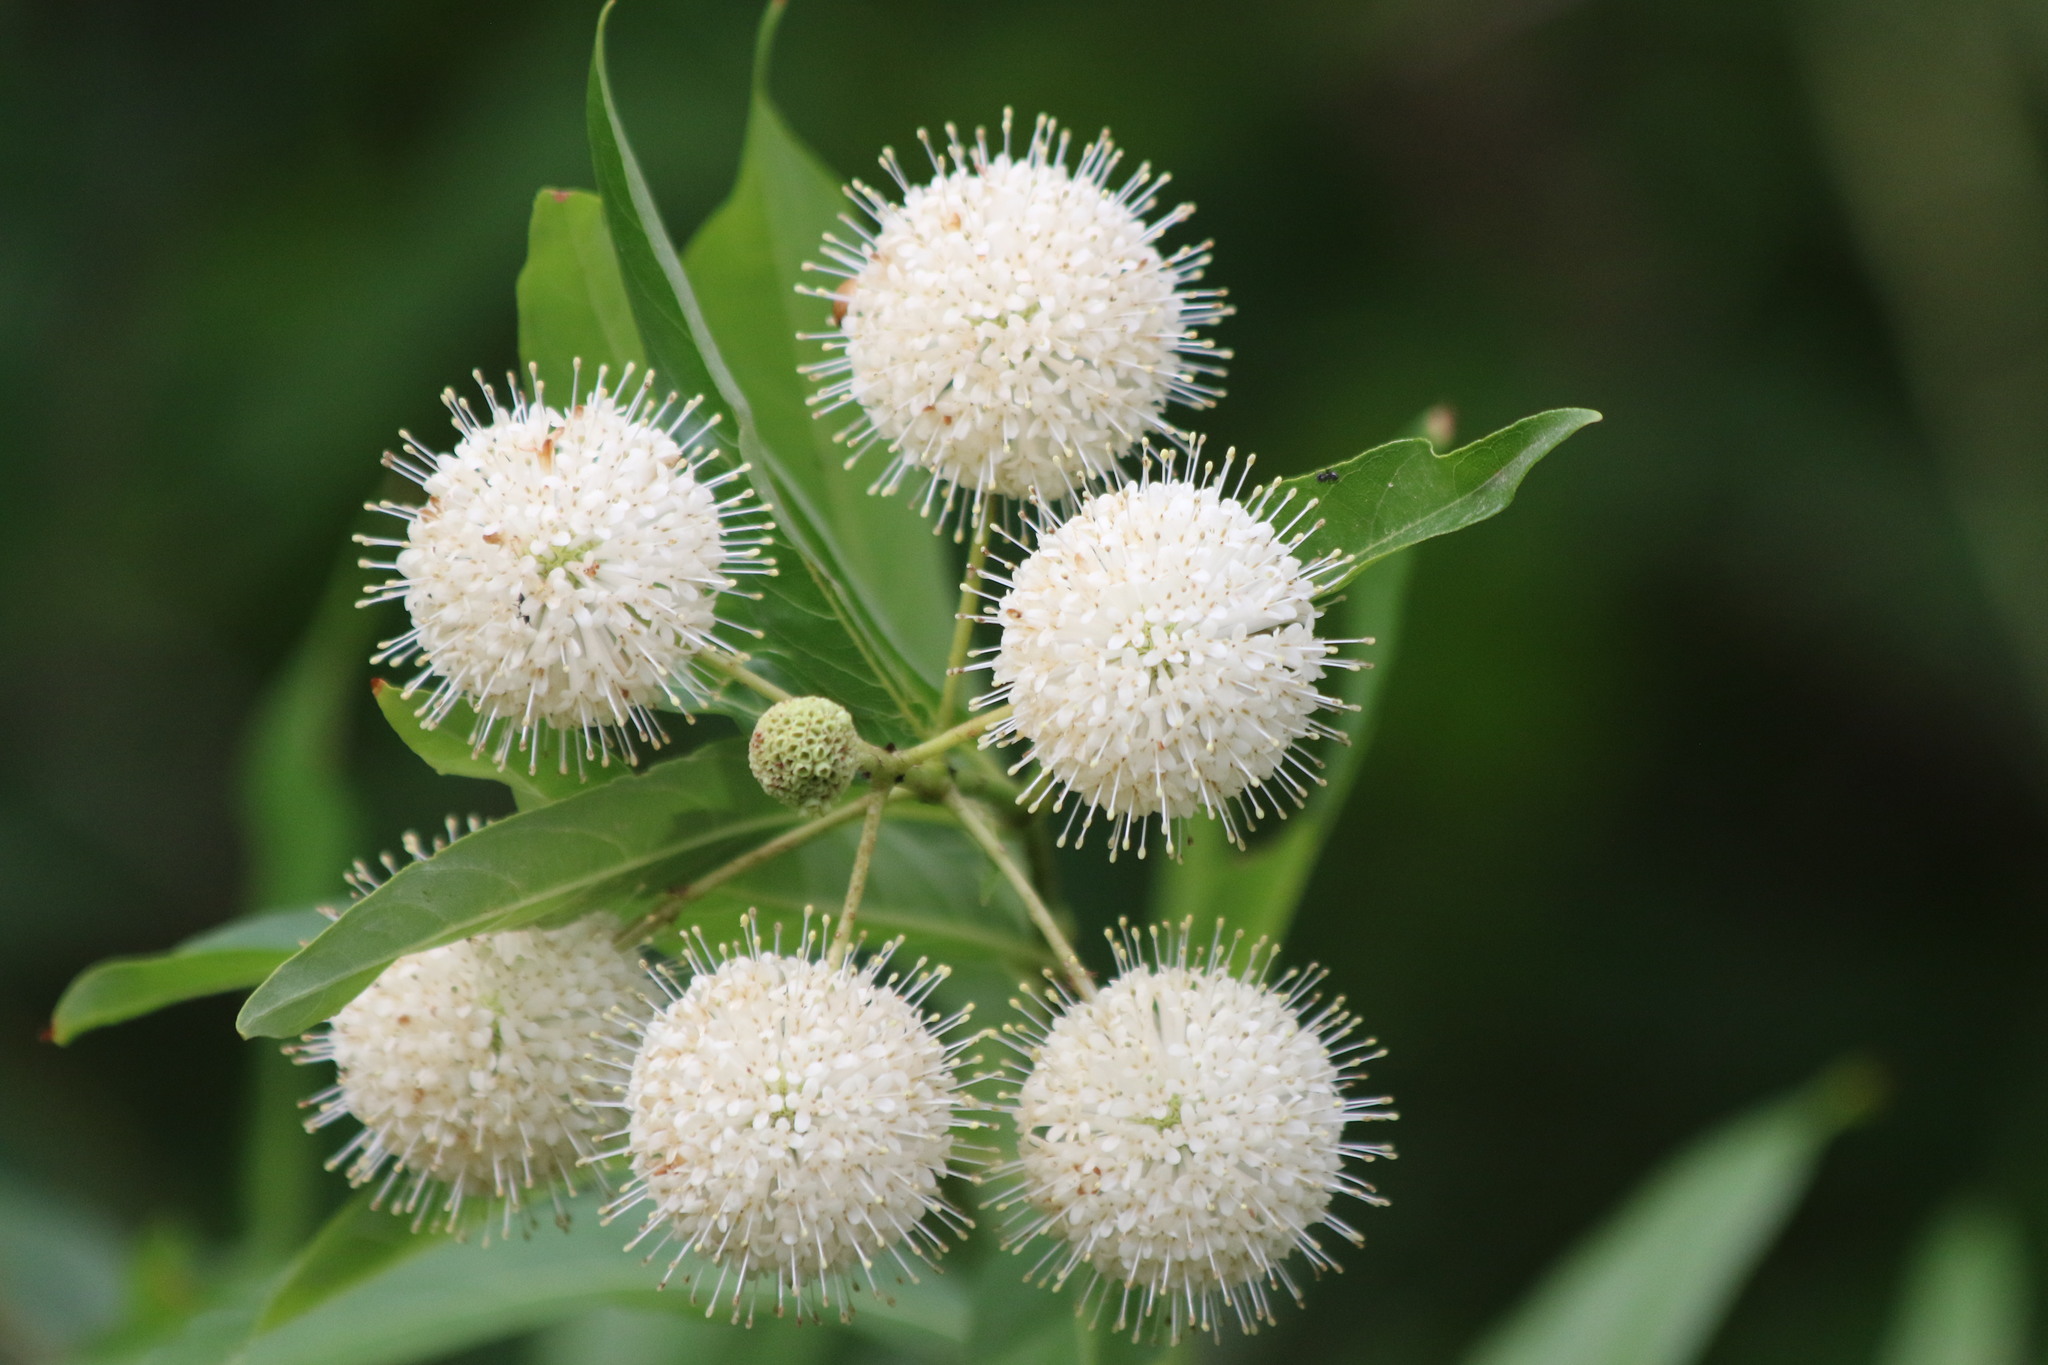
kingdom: Plantae
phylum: Tracheophyta
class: Magnoliopsida
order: Gentianales
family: Rubiaceae
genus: Cephalanthus
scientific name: Cephalanthus occidentalis
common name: Button-willow
